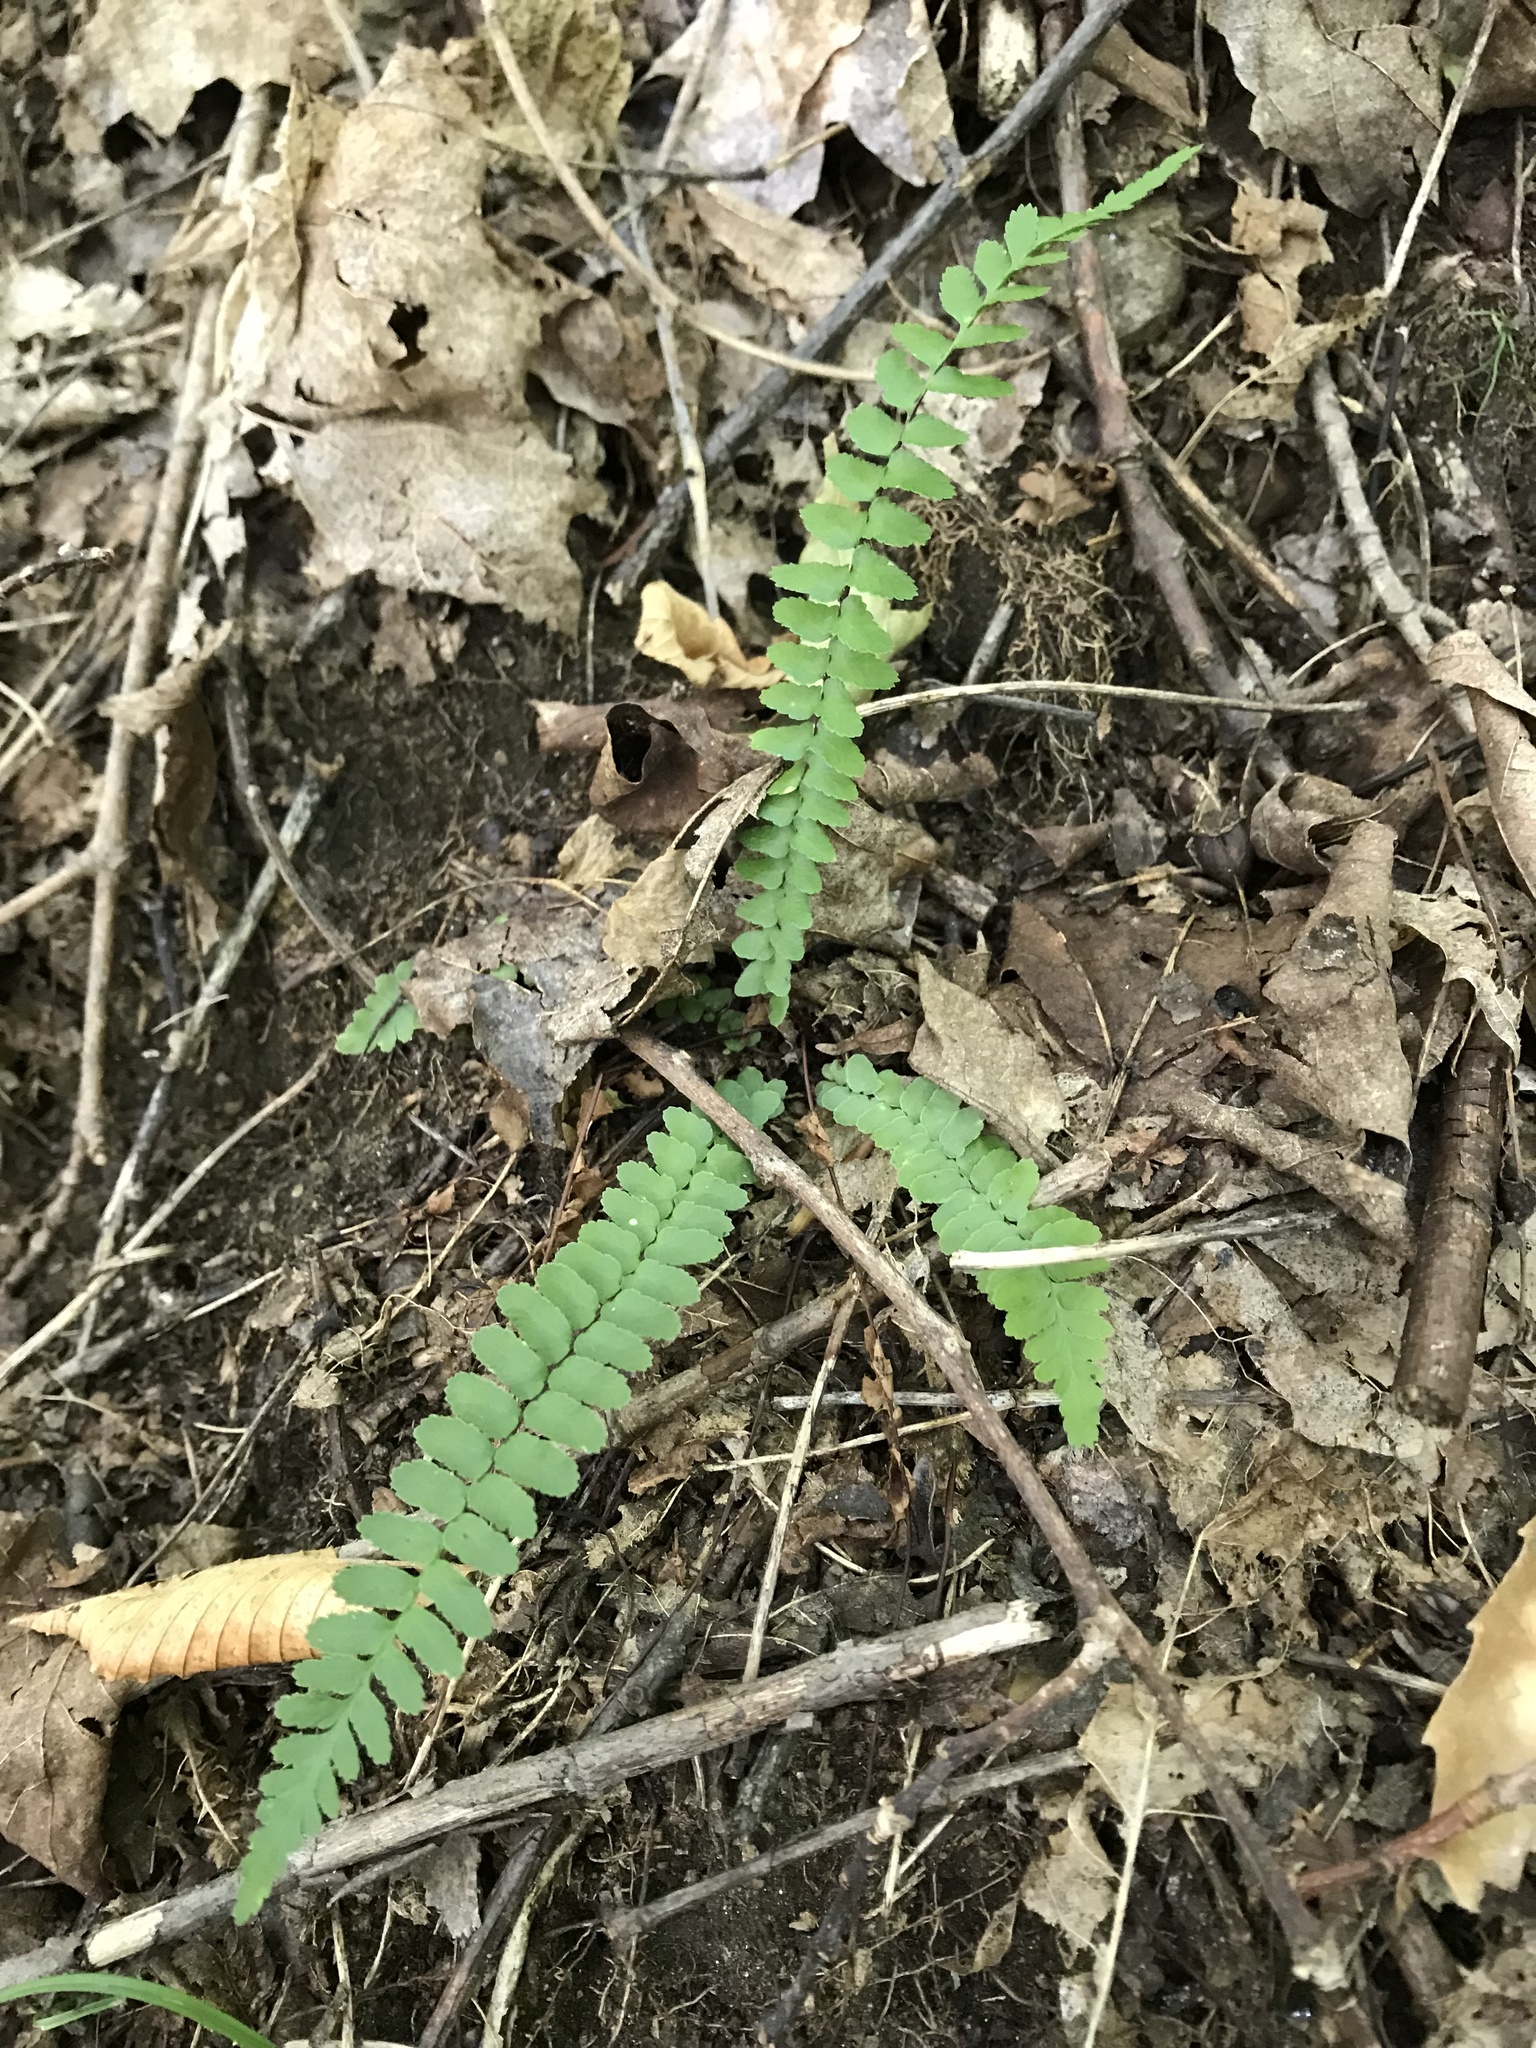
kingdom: Plantae
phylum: Tracheophyta
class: Polypodiopsida
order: Polypodiales
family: Aspleniaceae
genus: Asplenium
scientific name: Asplenium platyneuron
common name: Ebony spleenwort
